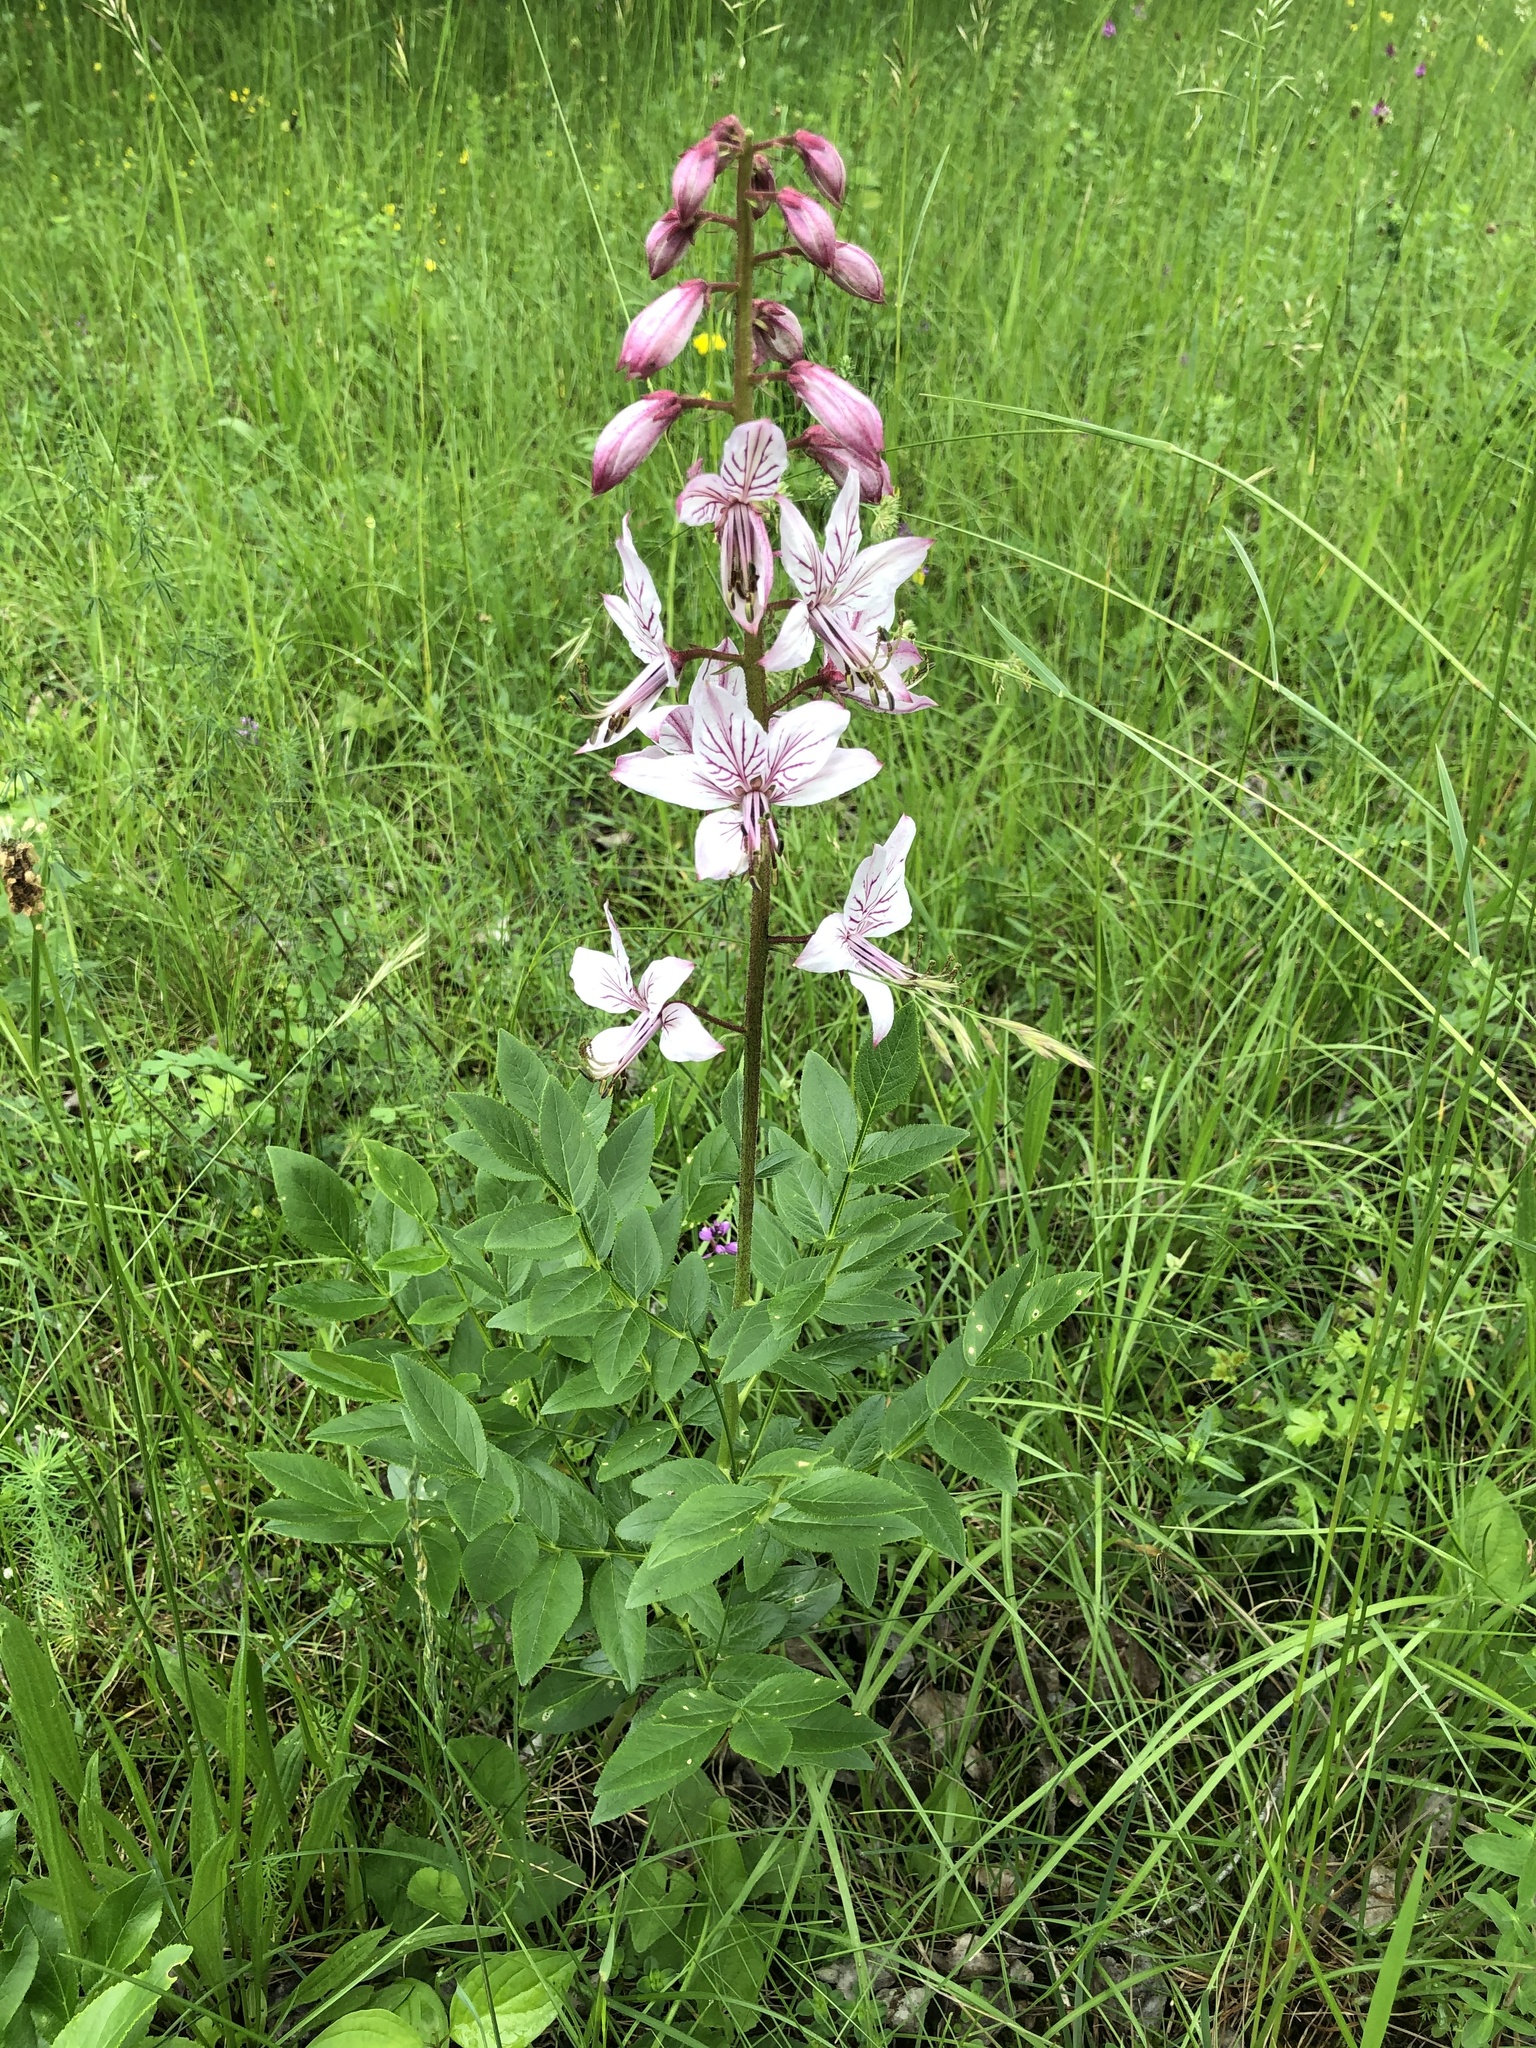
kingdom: Plantae
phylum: Tracheophyta
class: Magnoliopsida
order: Sapindales
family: Rutaceae
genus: Dictamnus
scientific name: Dictamnus albus
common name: Gasplant
